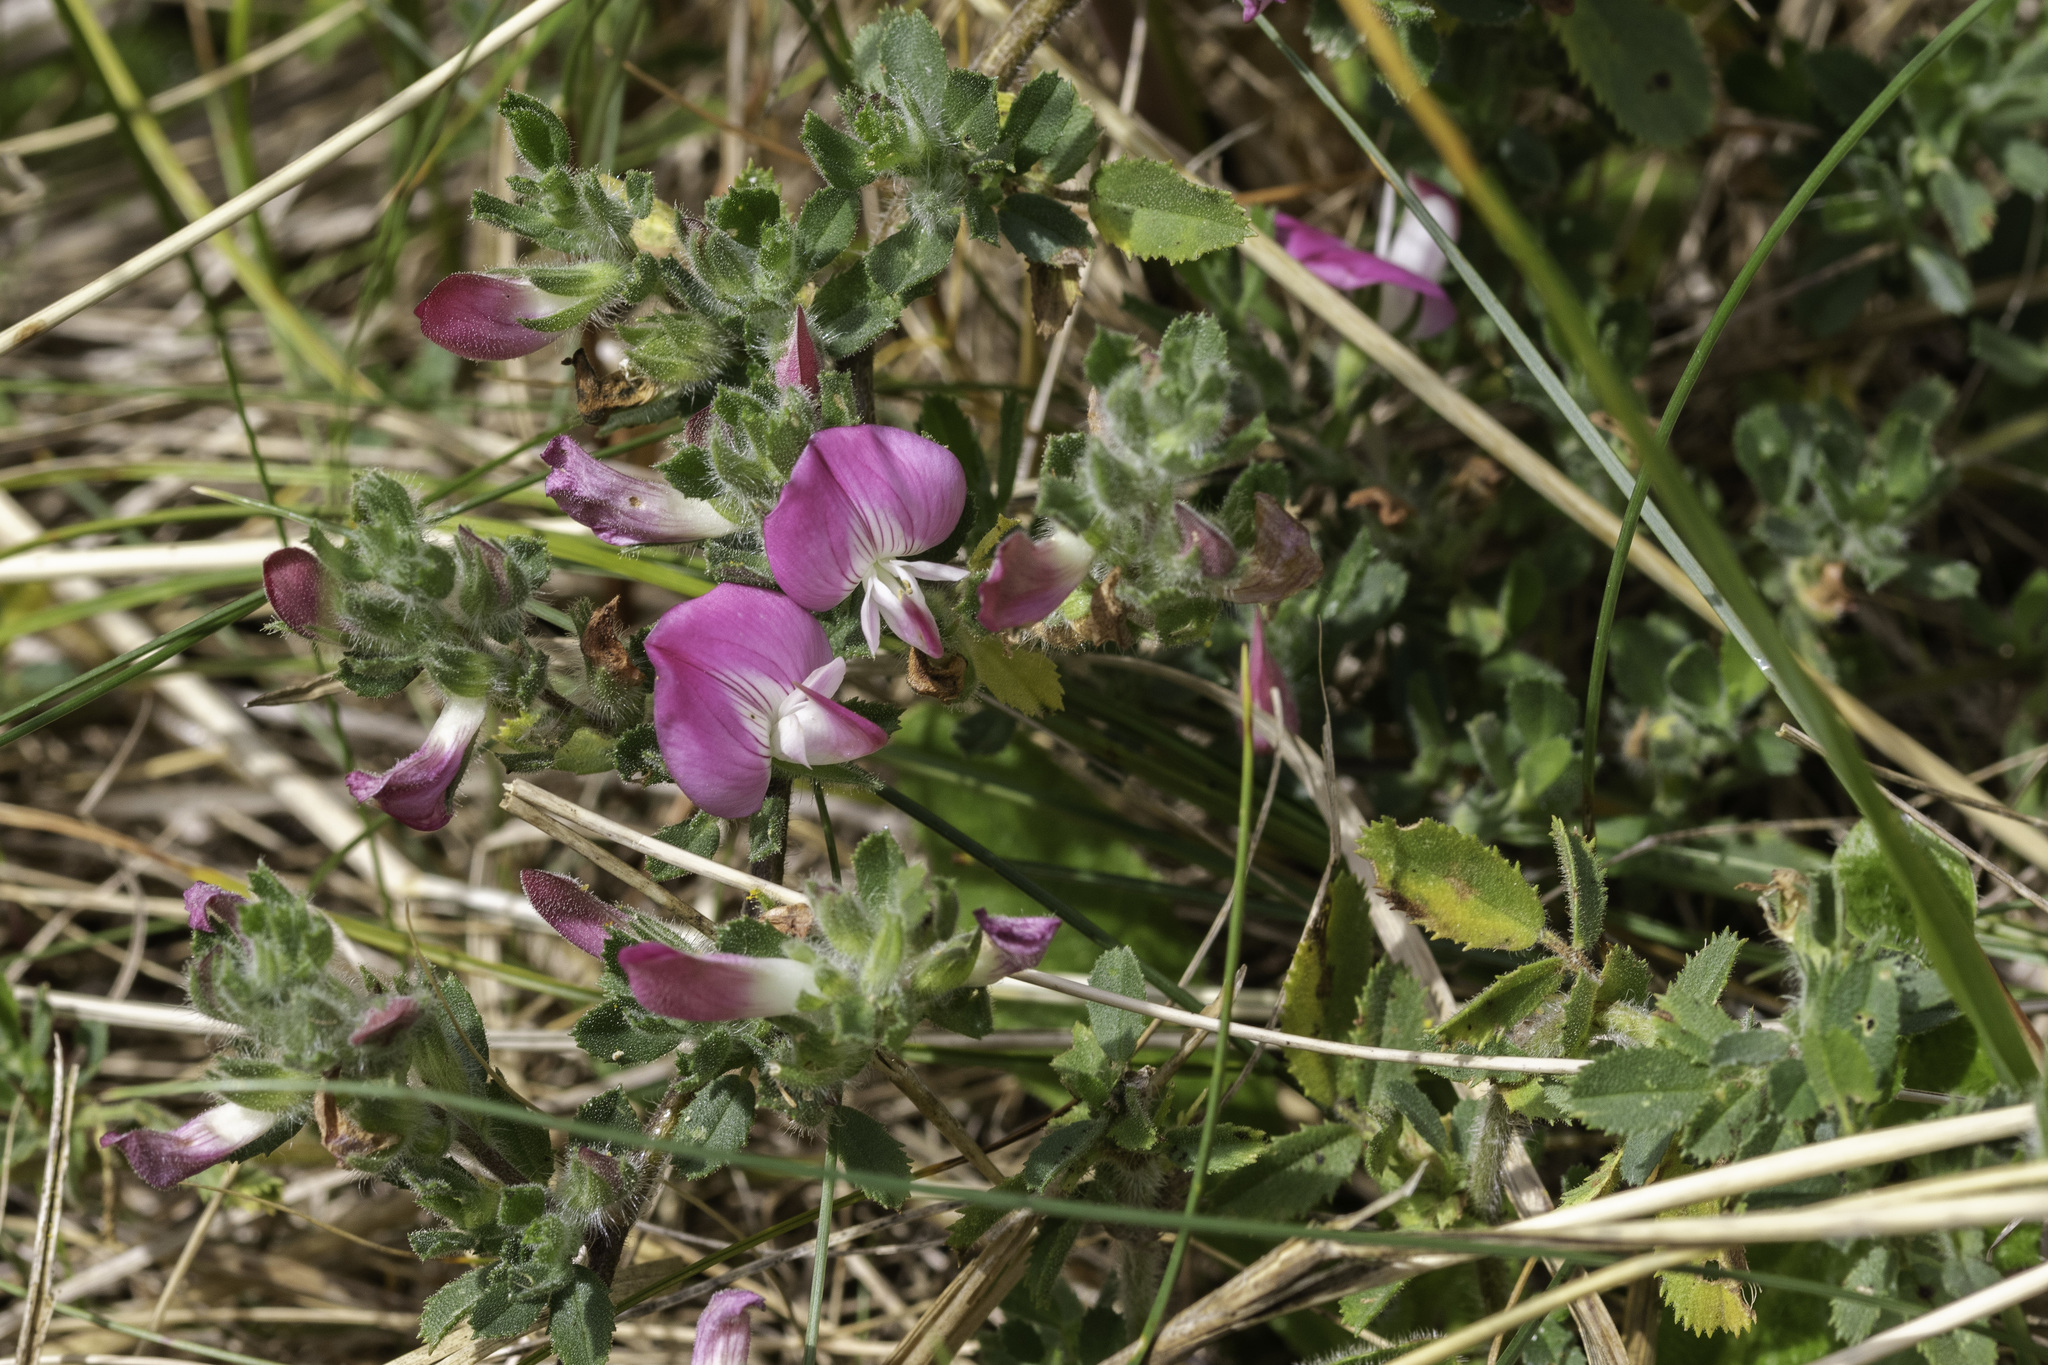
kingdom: Plantae
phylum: Tracheophyta
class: Magnoliopsida
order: Fabales
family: Fabaceae
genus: Ononis
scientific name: Ononis spinosa
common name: Spiny restharrow
